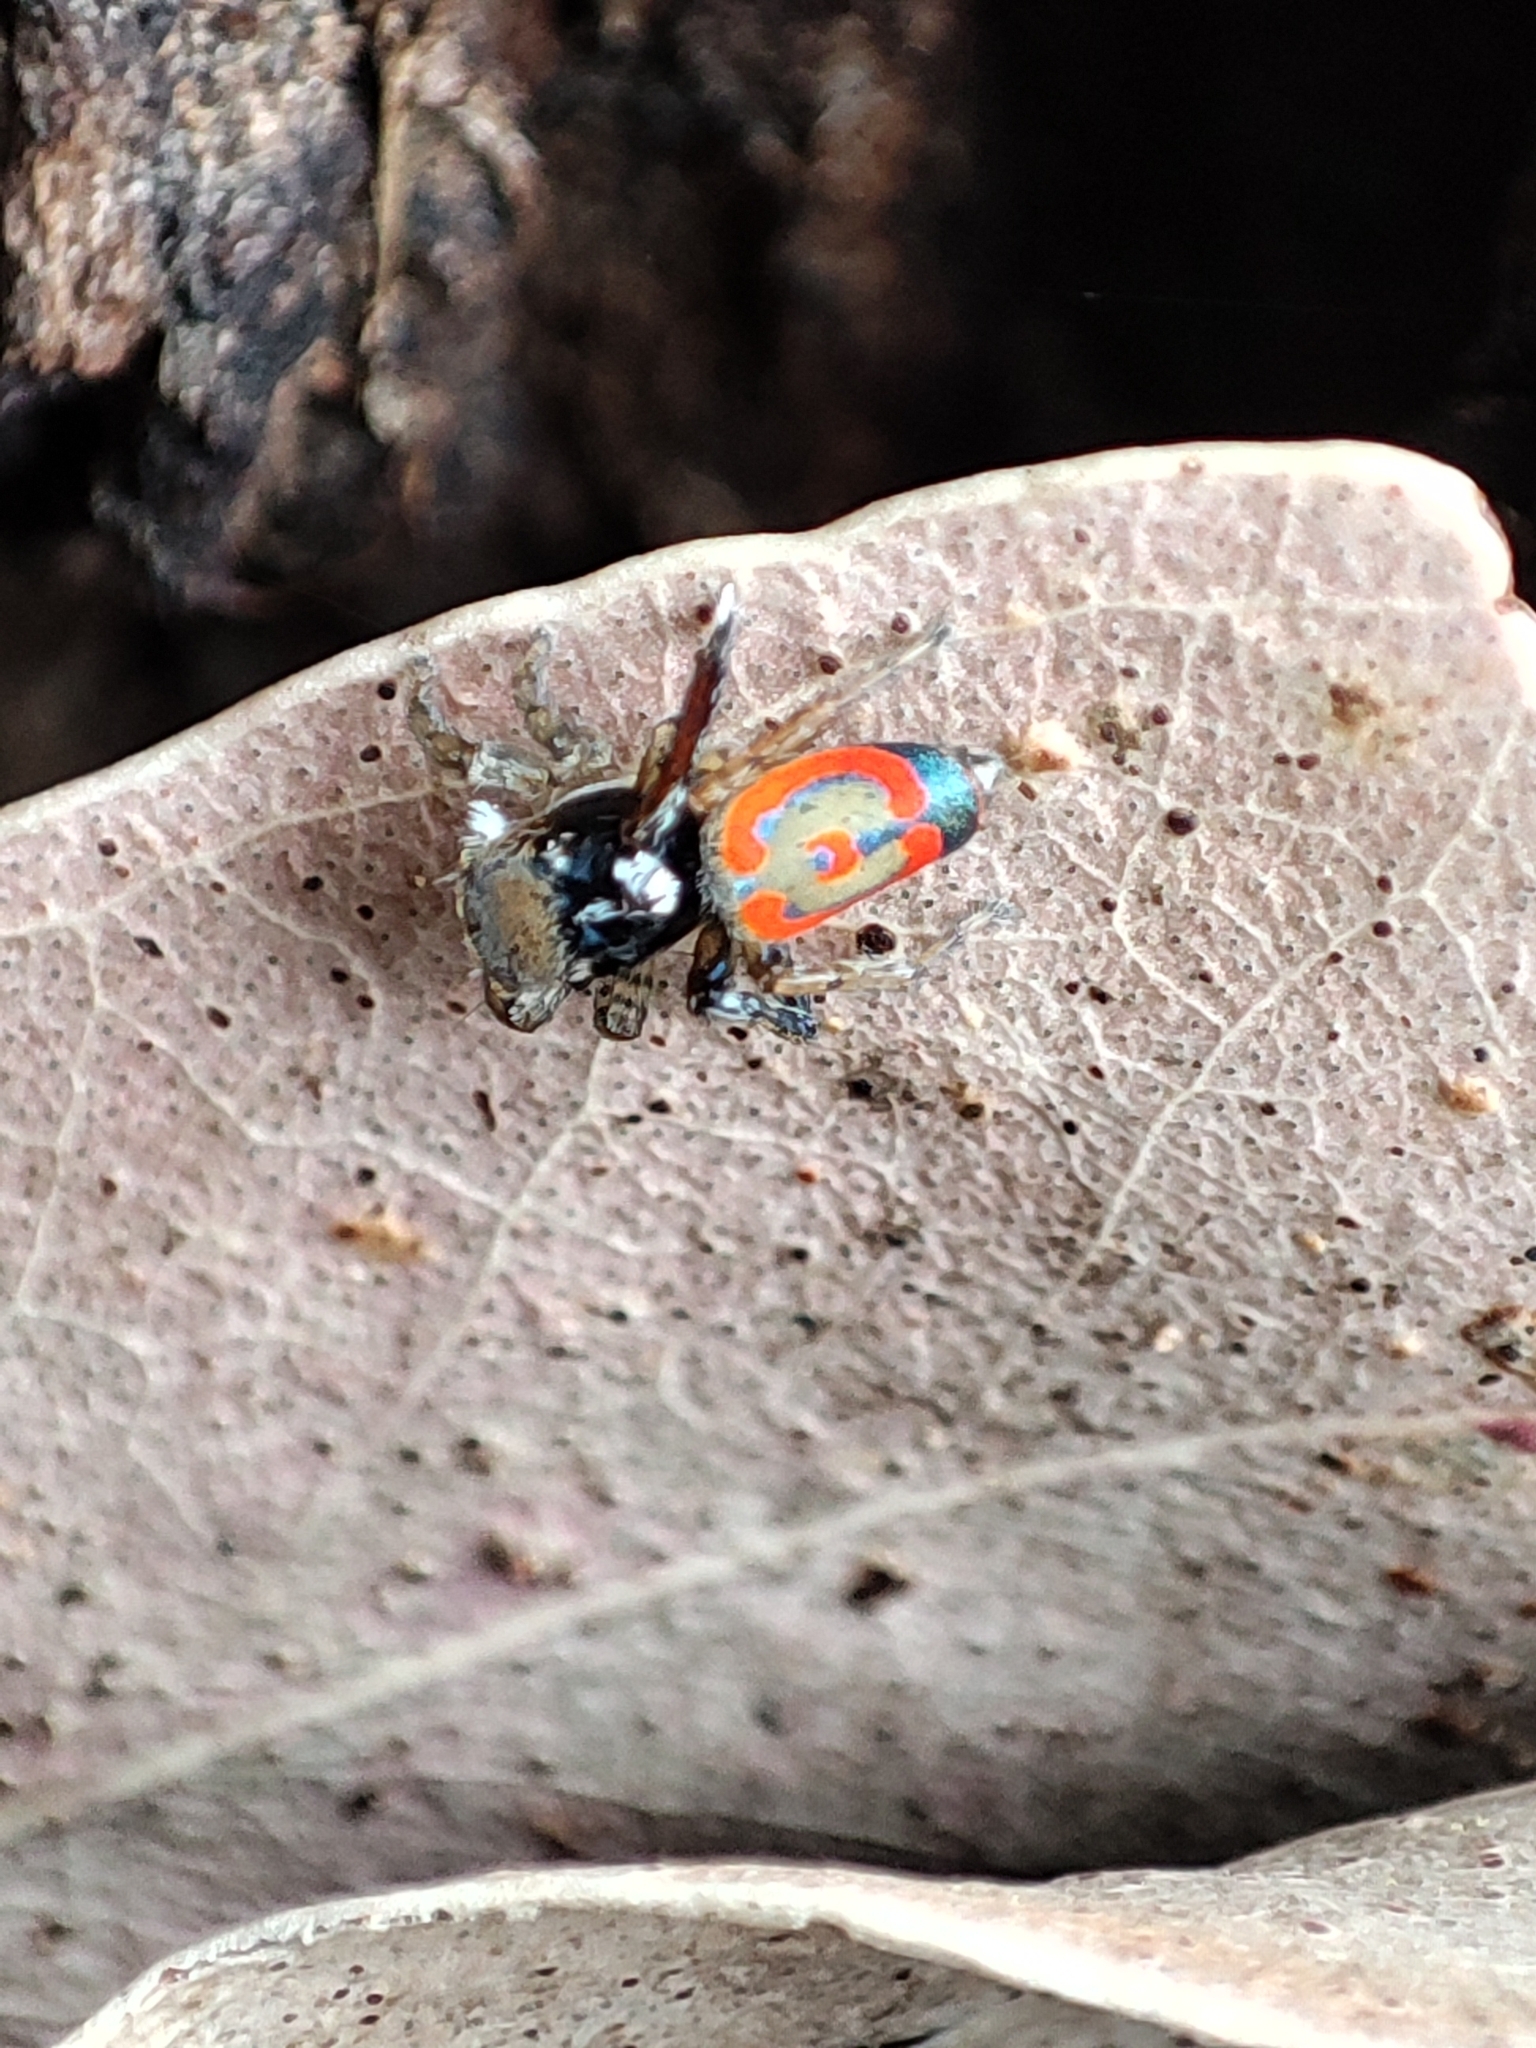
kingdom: Animalia
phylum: Arthropoda
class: Arachnida
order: Araneae
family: Salticidae
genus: Maratus
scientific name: Maratus pavonis
